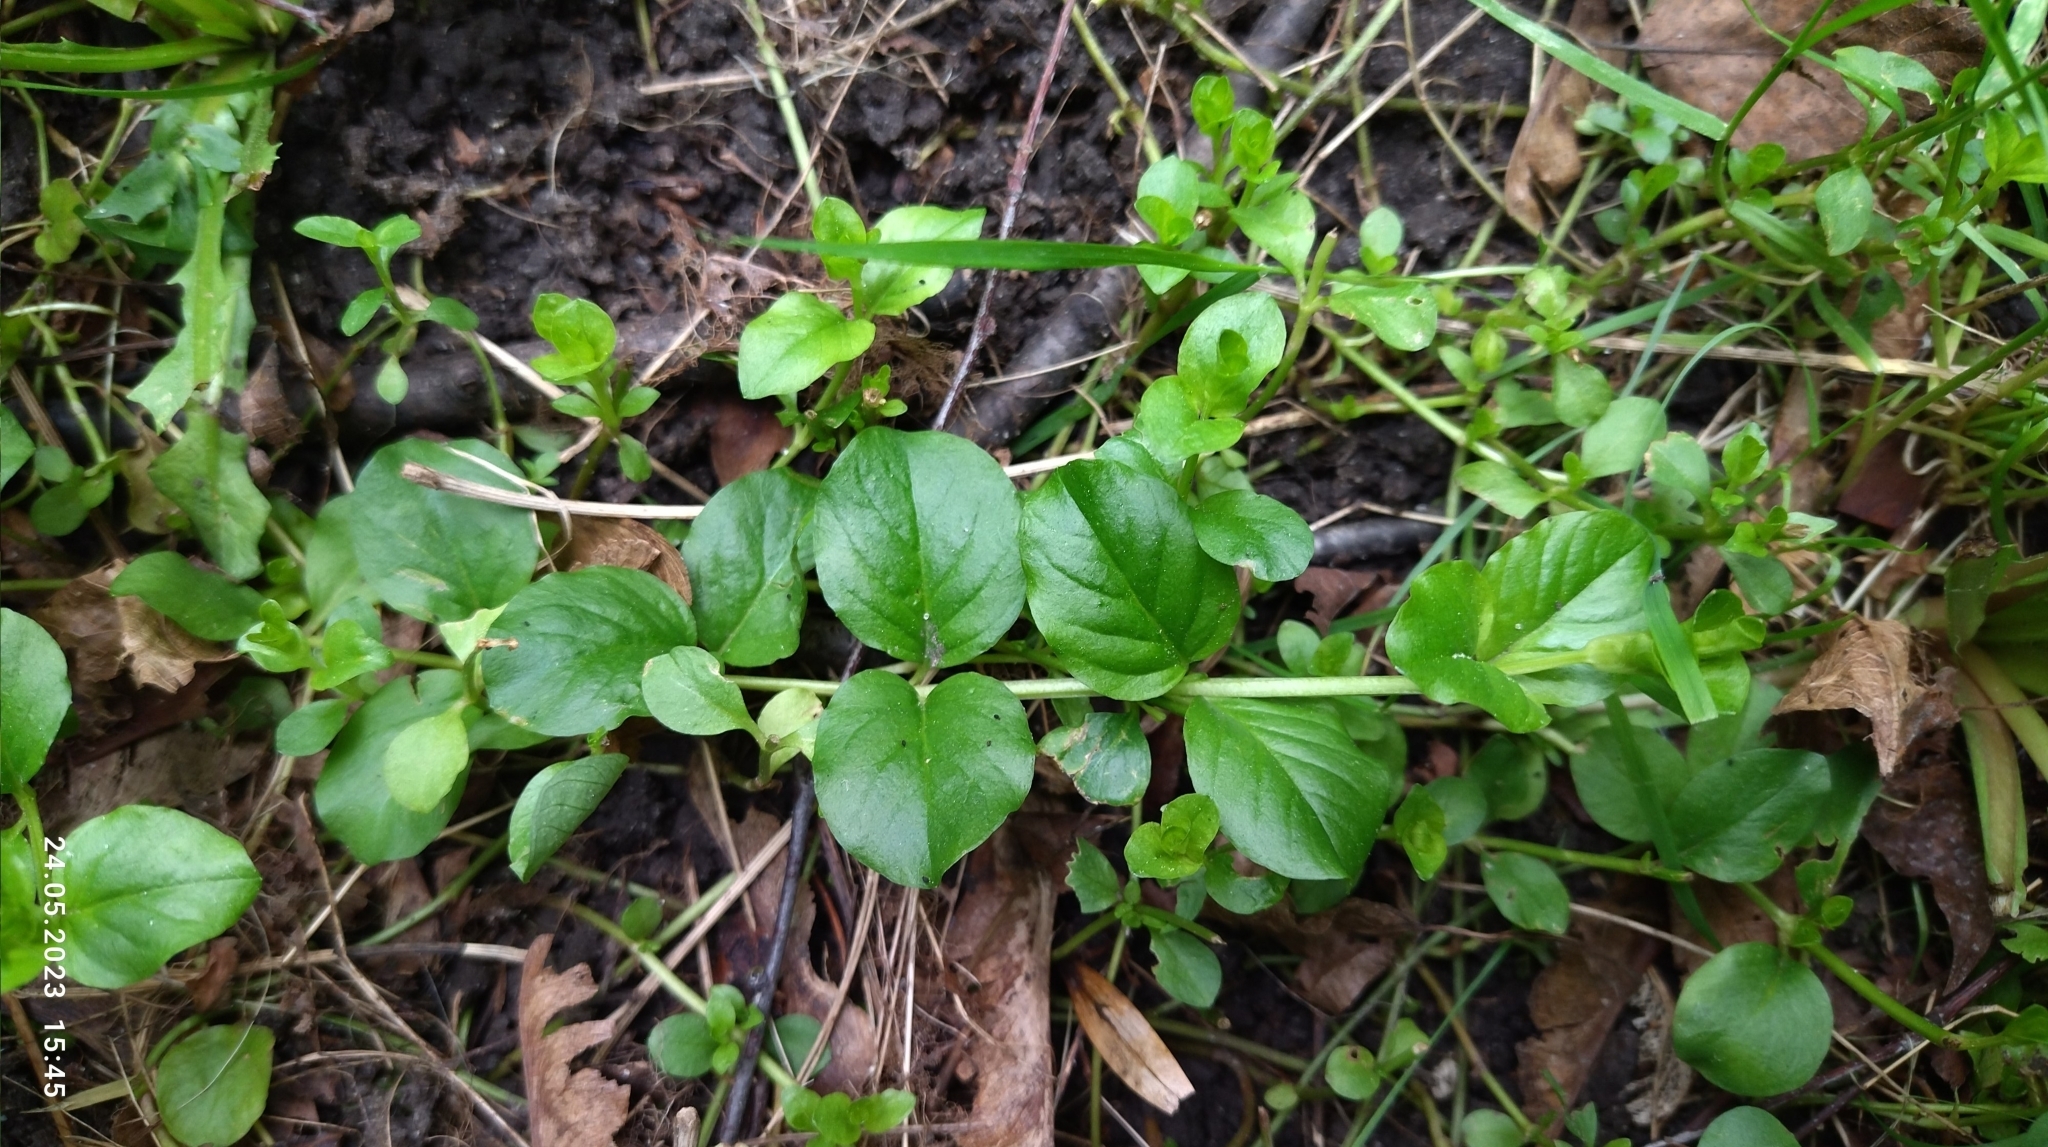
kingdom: Plantae
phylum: Tracheophyta
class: Magnoliopsida
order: Ericales
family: Primulaceae
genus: Lysimachia
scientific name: Lysimachia nummularia
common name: Moneywort
